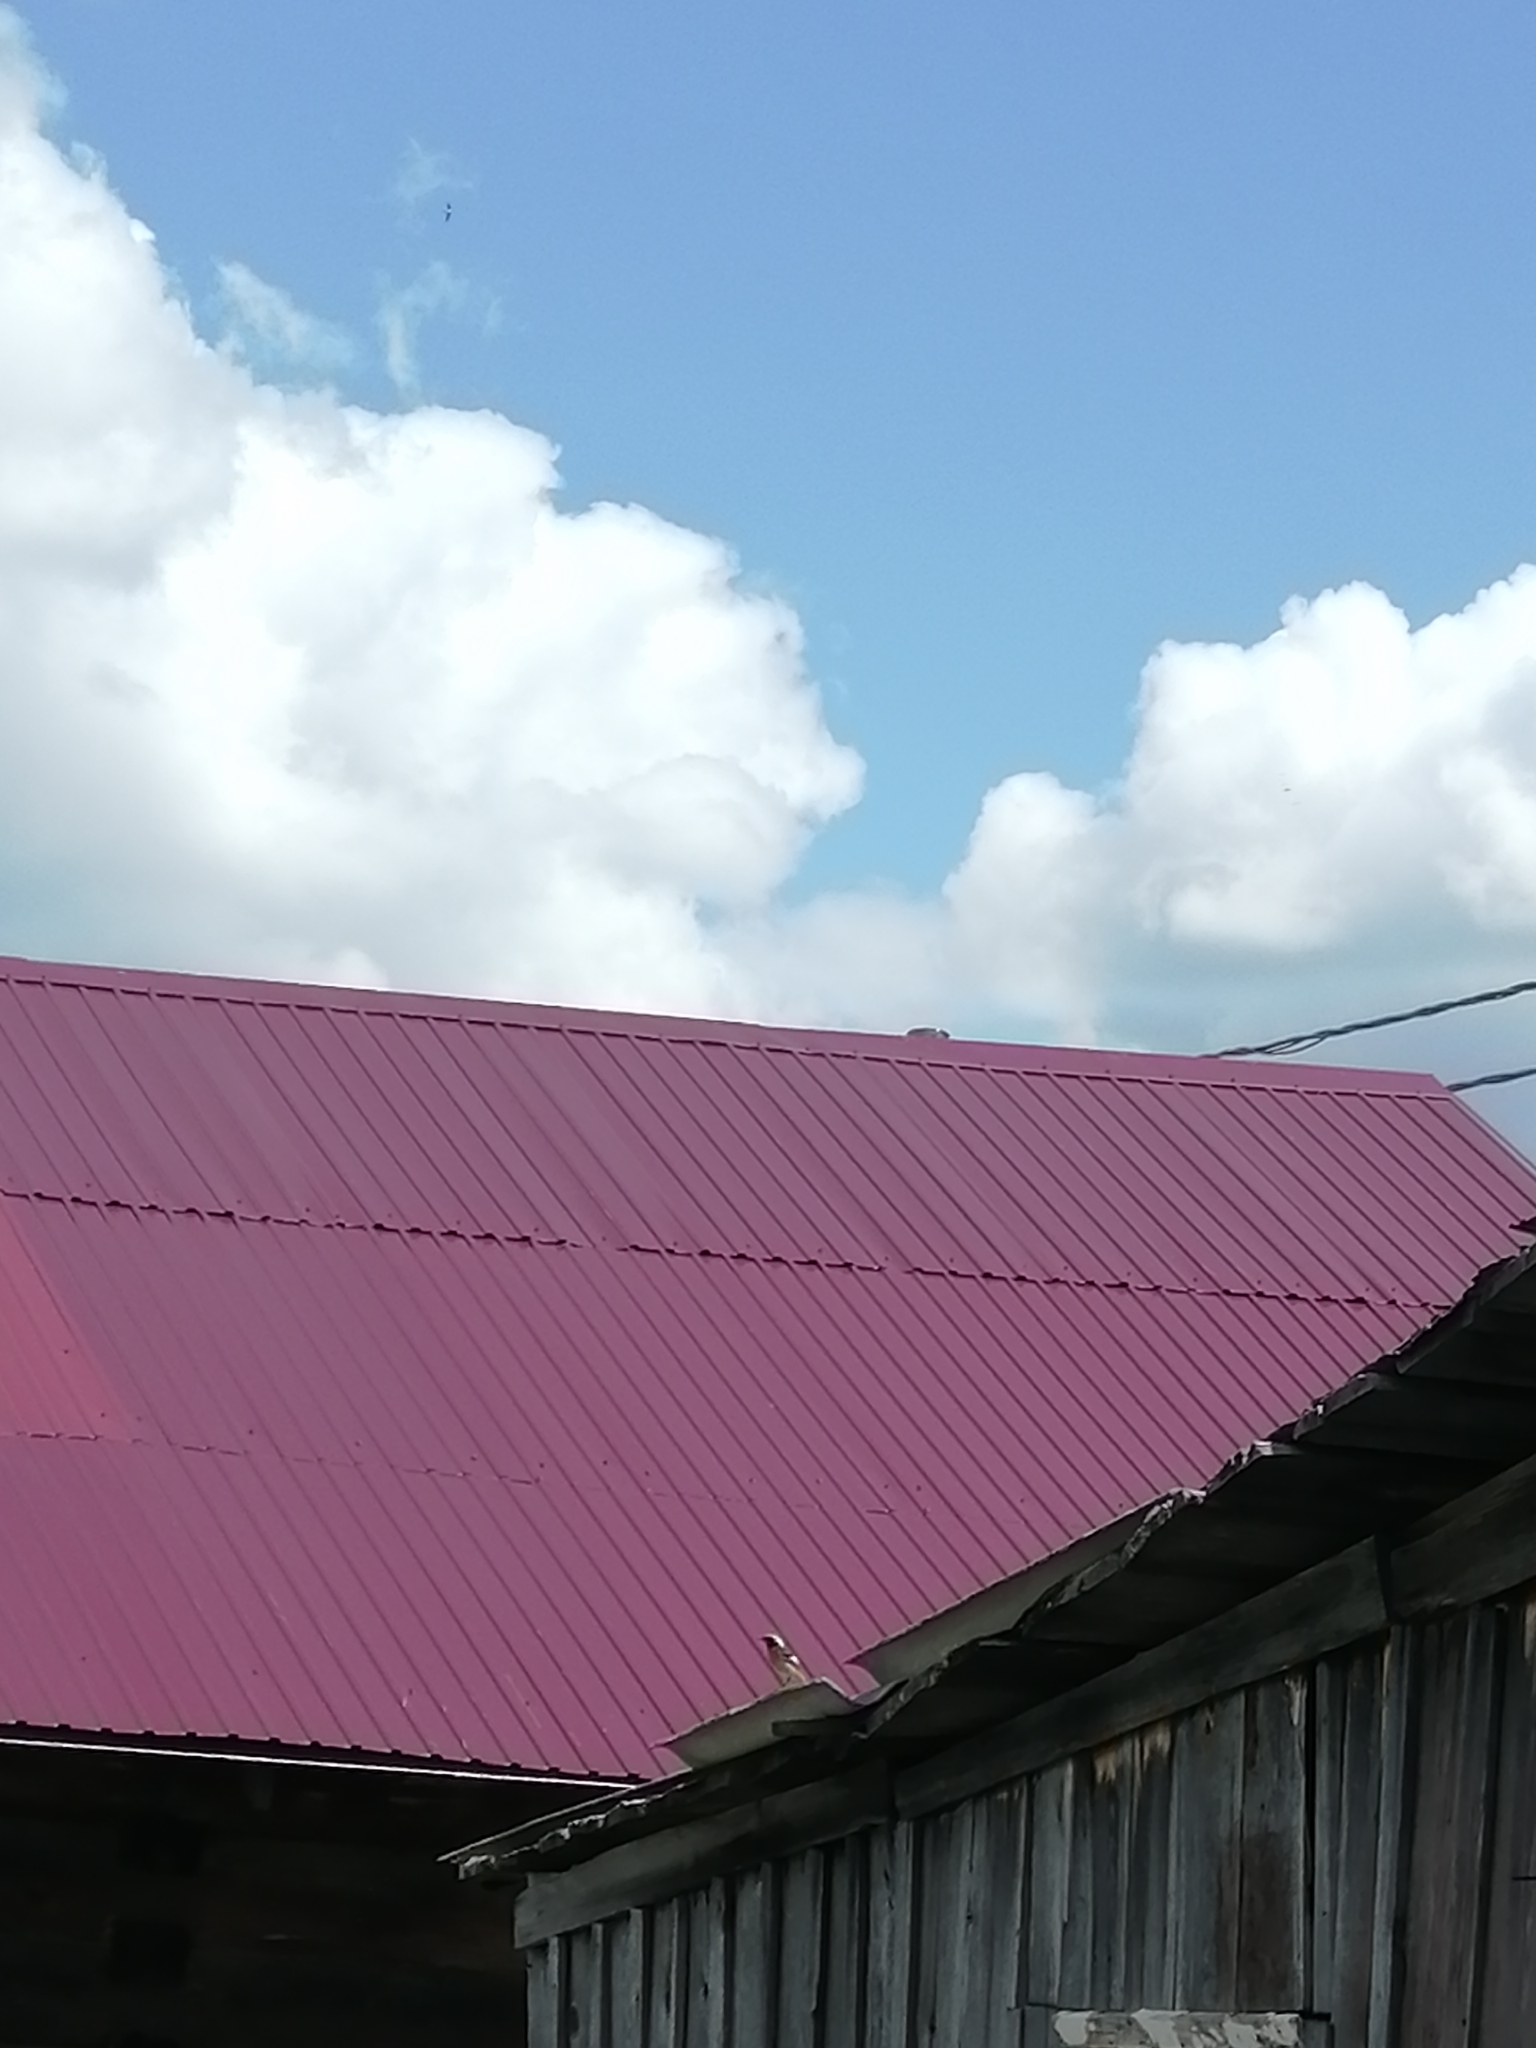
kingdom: Animalia
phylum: Chordata
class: Aves
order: Passeriformes
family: Muscicapidae
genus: Phoenicurus
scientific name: Phoenicurus auroreus
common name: Daurian redstart
